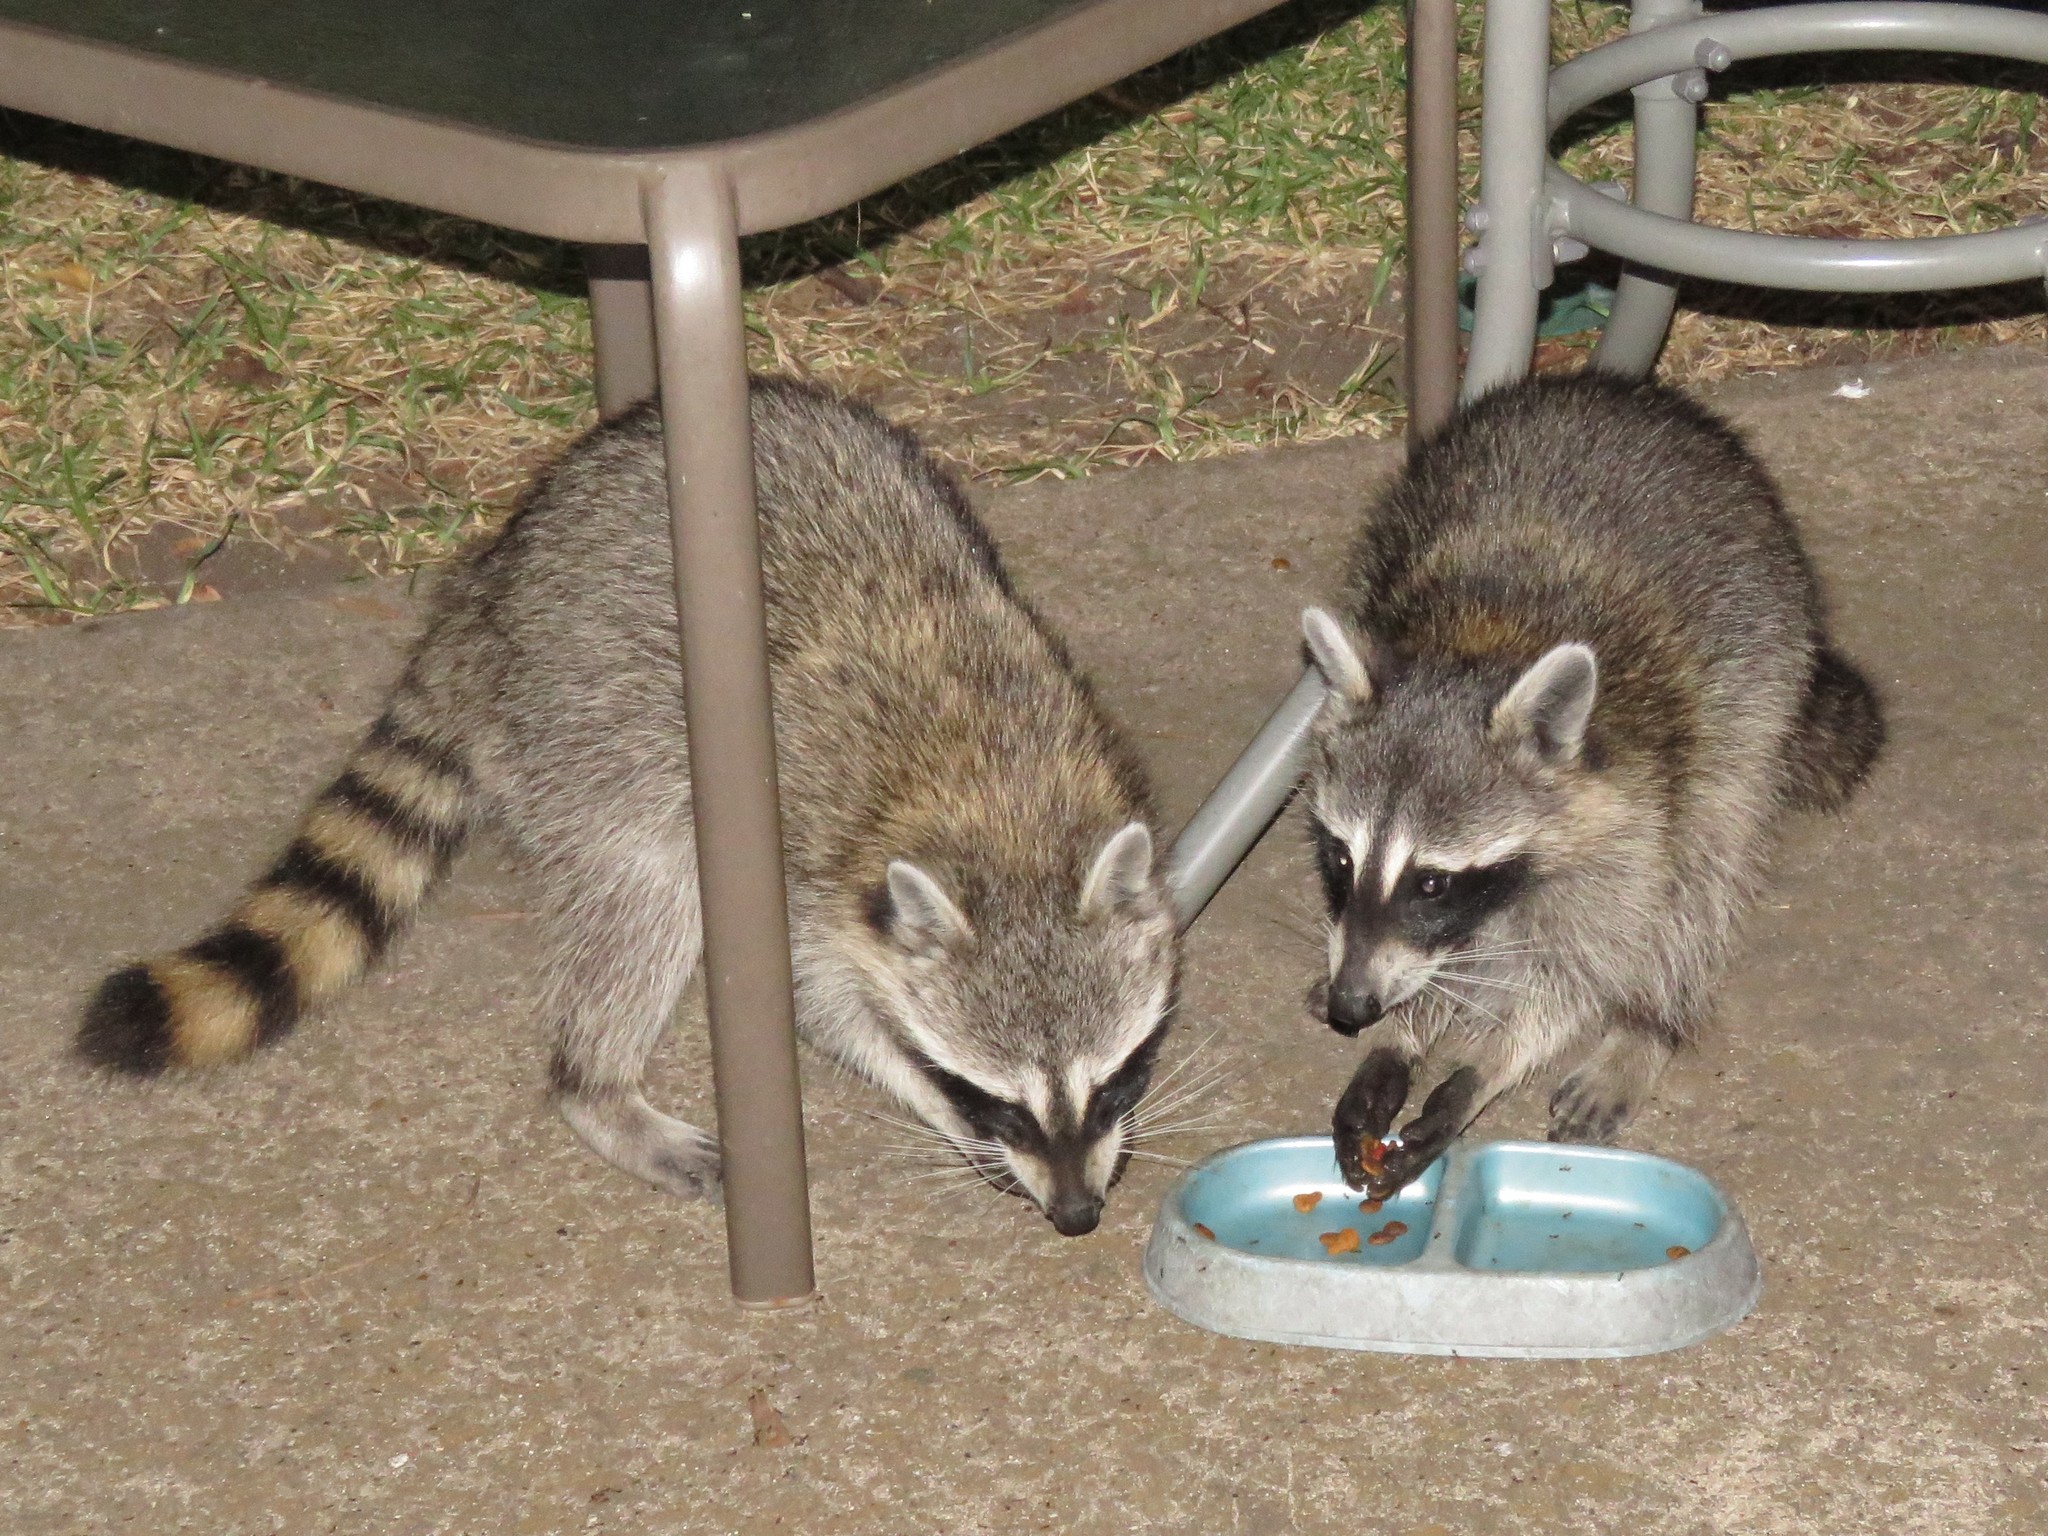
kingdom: Animalia
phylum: Chordata
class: Mammalia
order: Carnivora
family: Procyonidae
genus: Procyon
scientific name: Procyon lotor
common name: Raccoon
